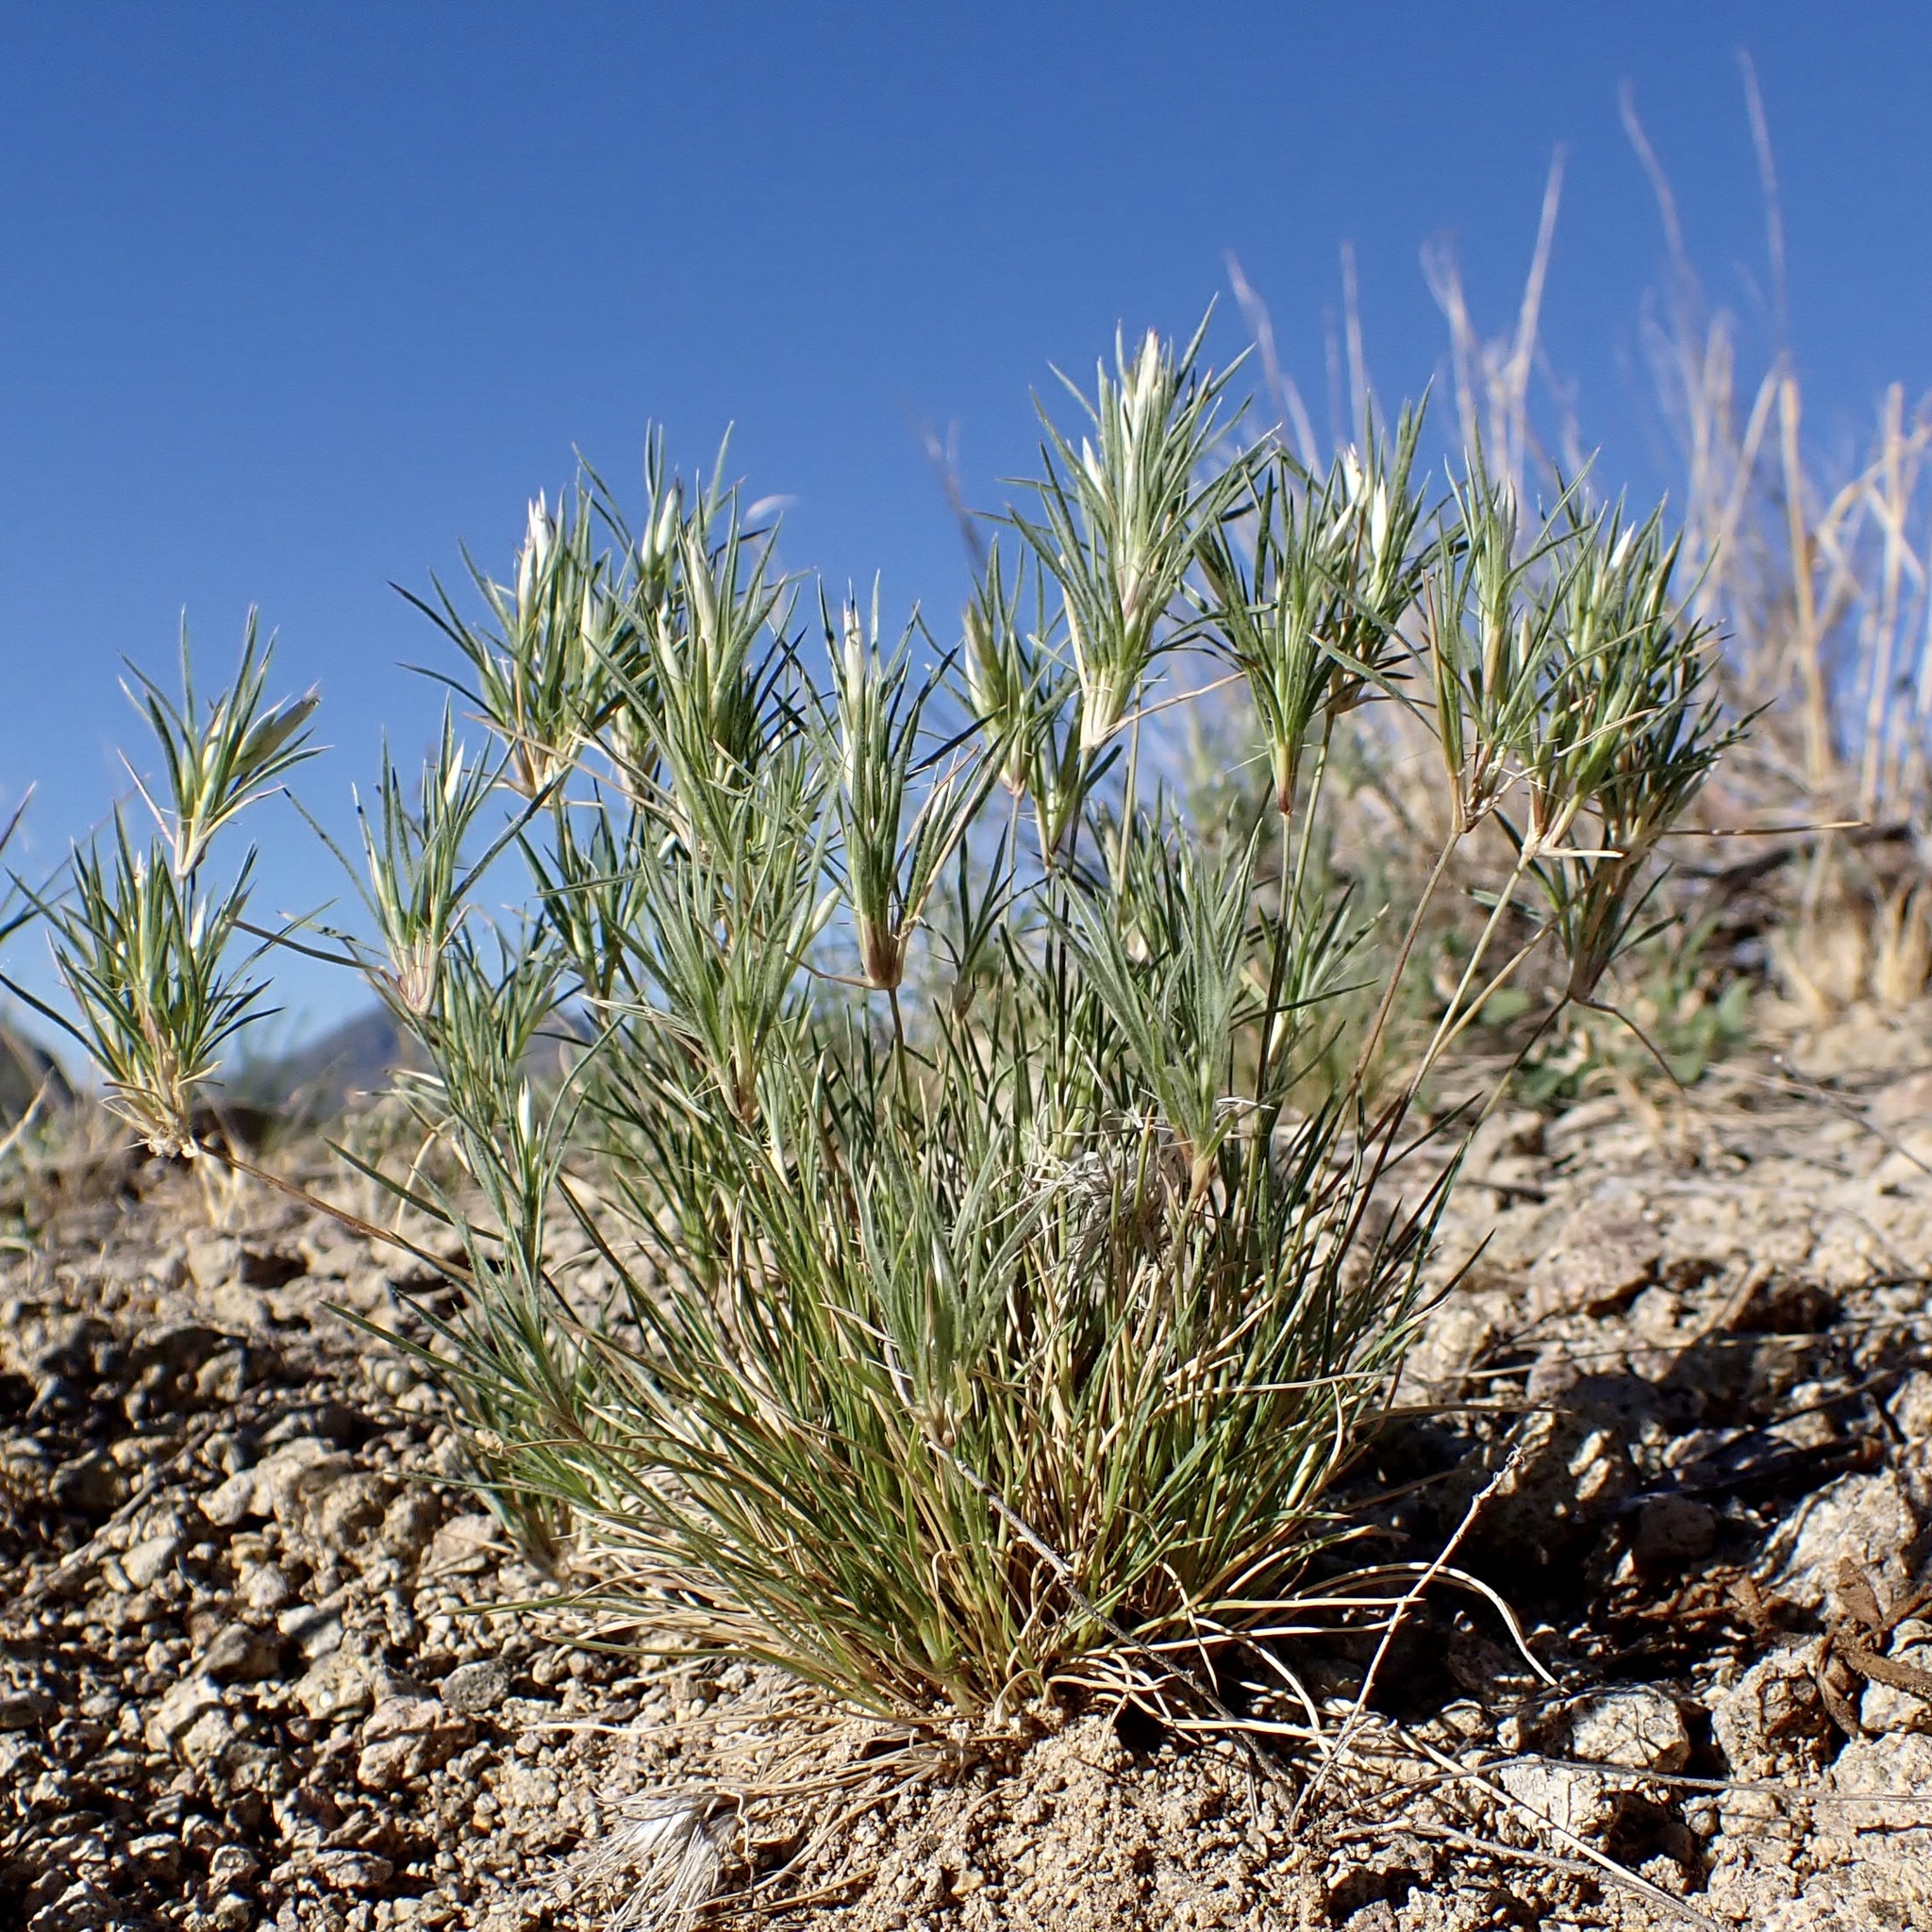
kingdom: Plantae
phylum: Tracheophyta
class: Liliopsida
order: Poales
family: Poaceae
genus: Dasyochloa
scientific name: Dasyochloa pulchella
